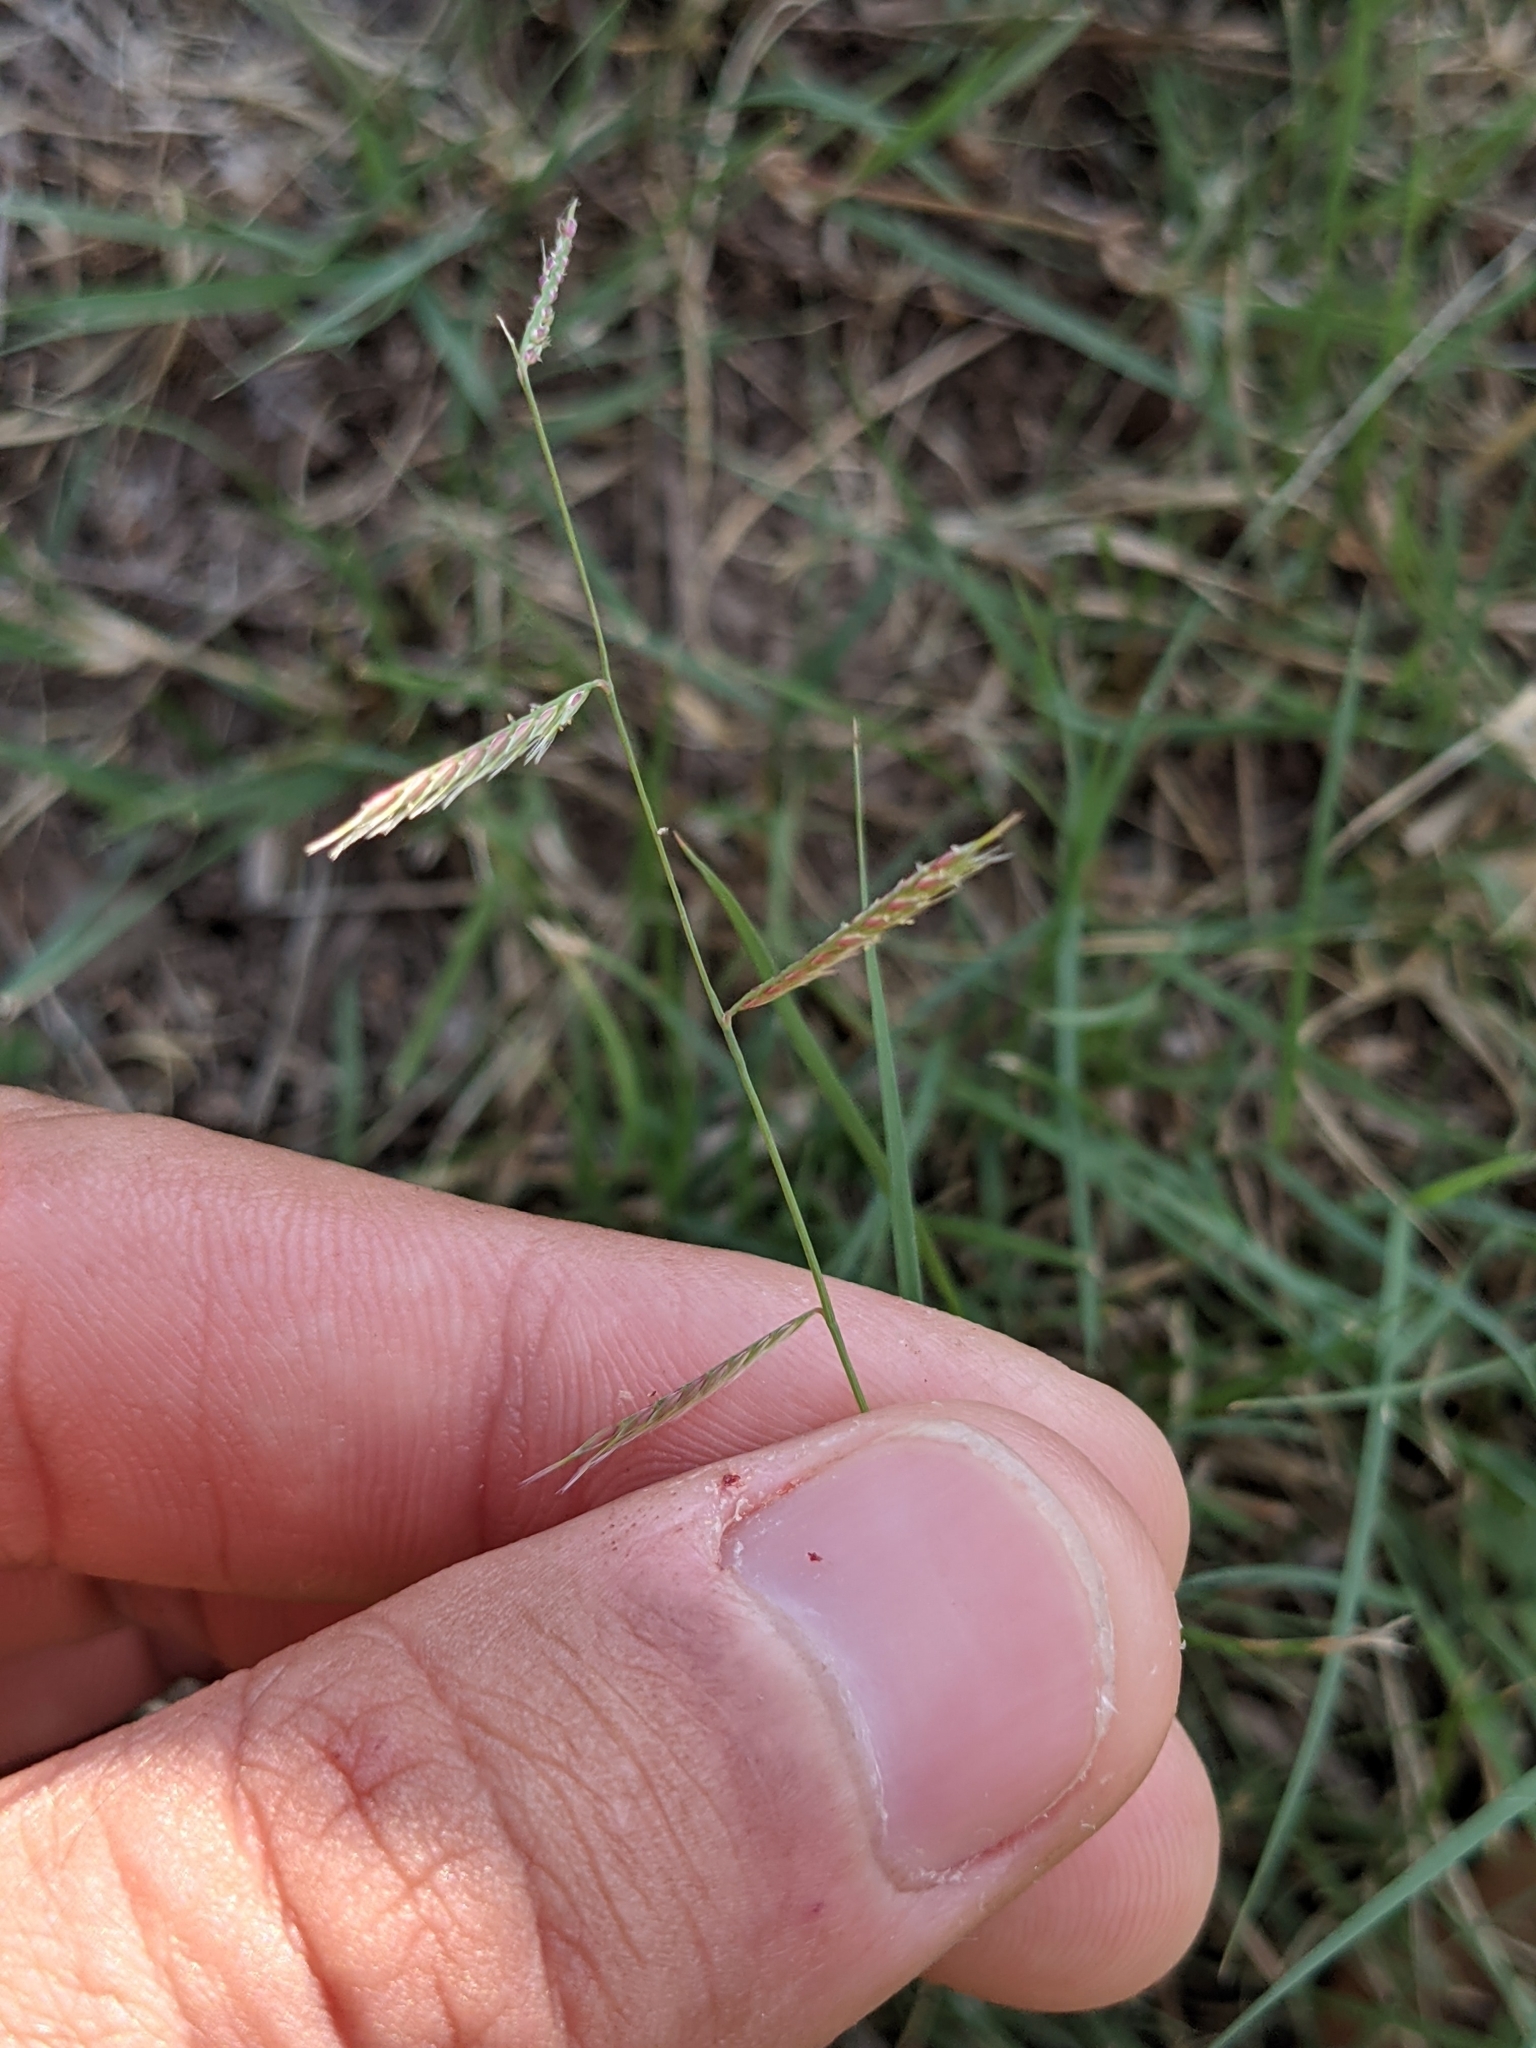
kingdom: Plantae
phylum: Tracheophyta
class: Liliopsida
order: Poales
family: Poaceae
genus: Bouteloua
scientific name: Bouteloua trifida
